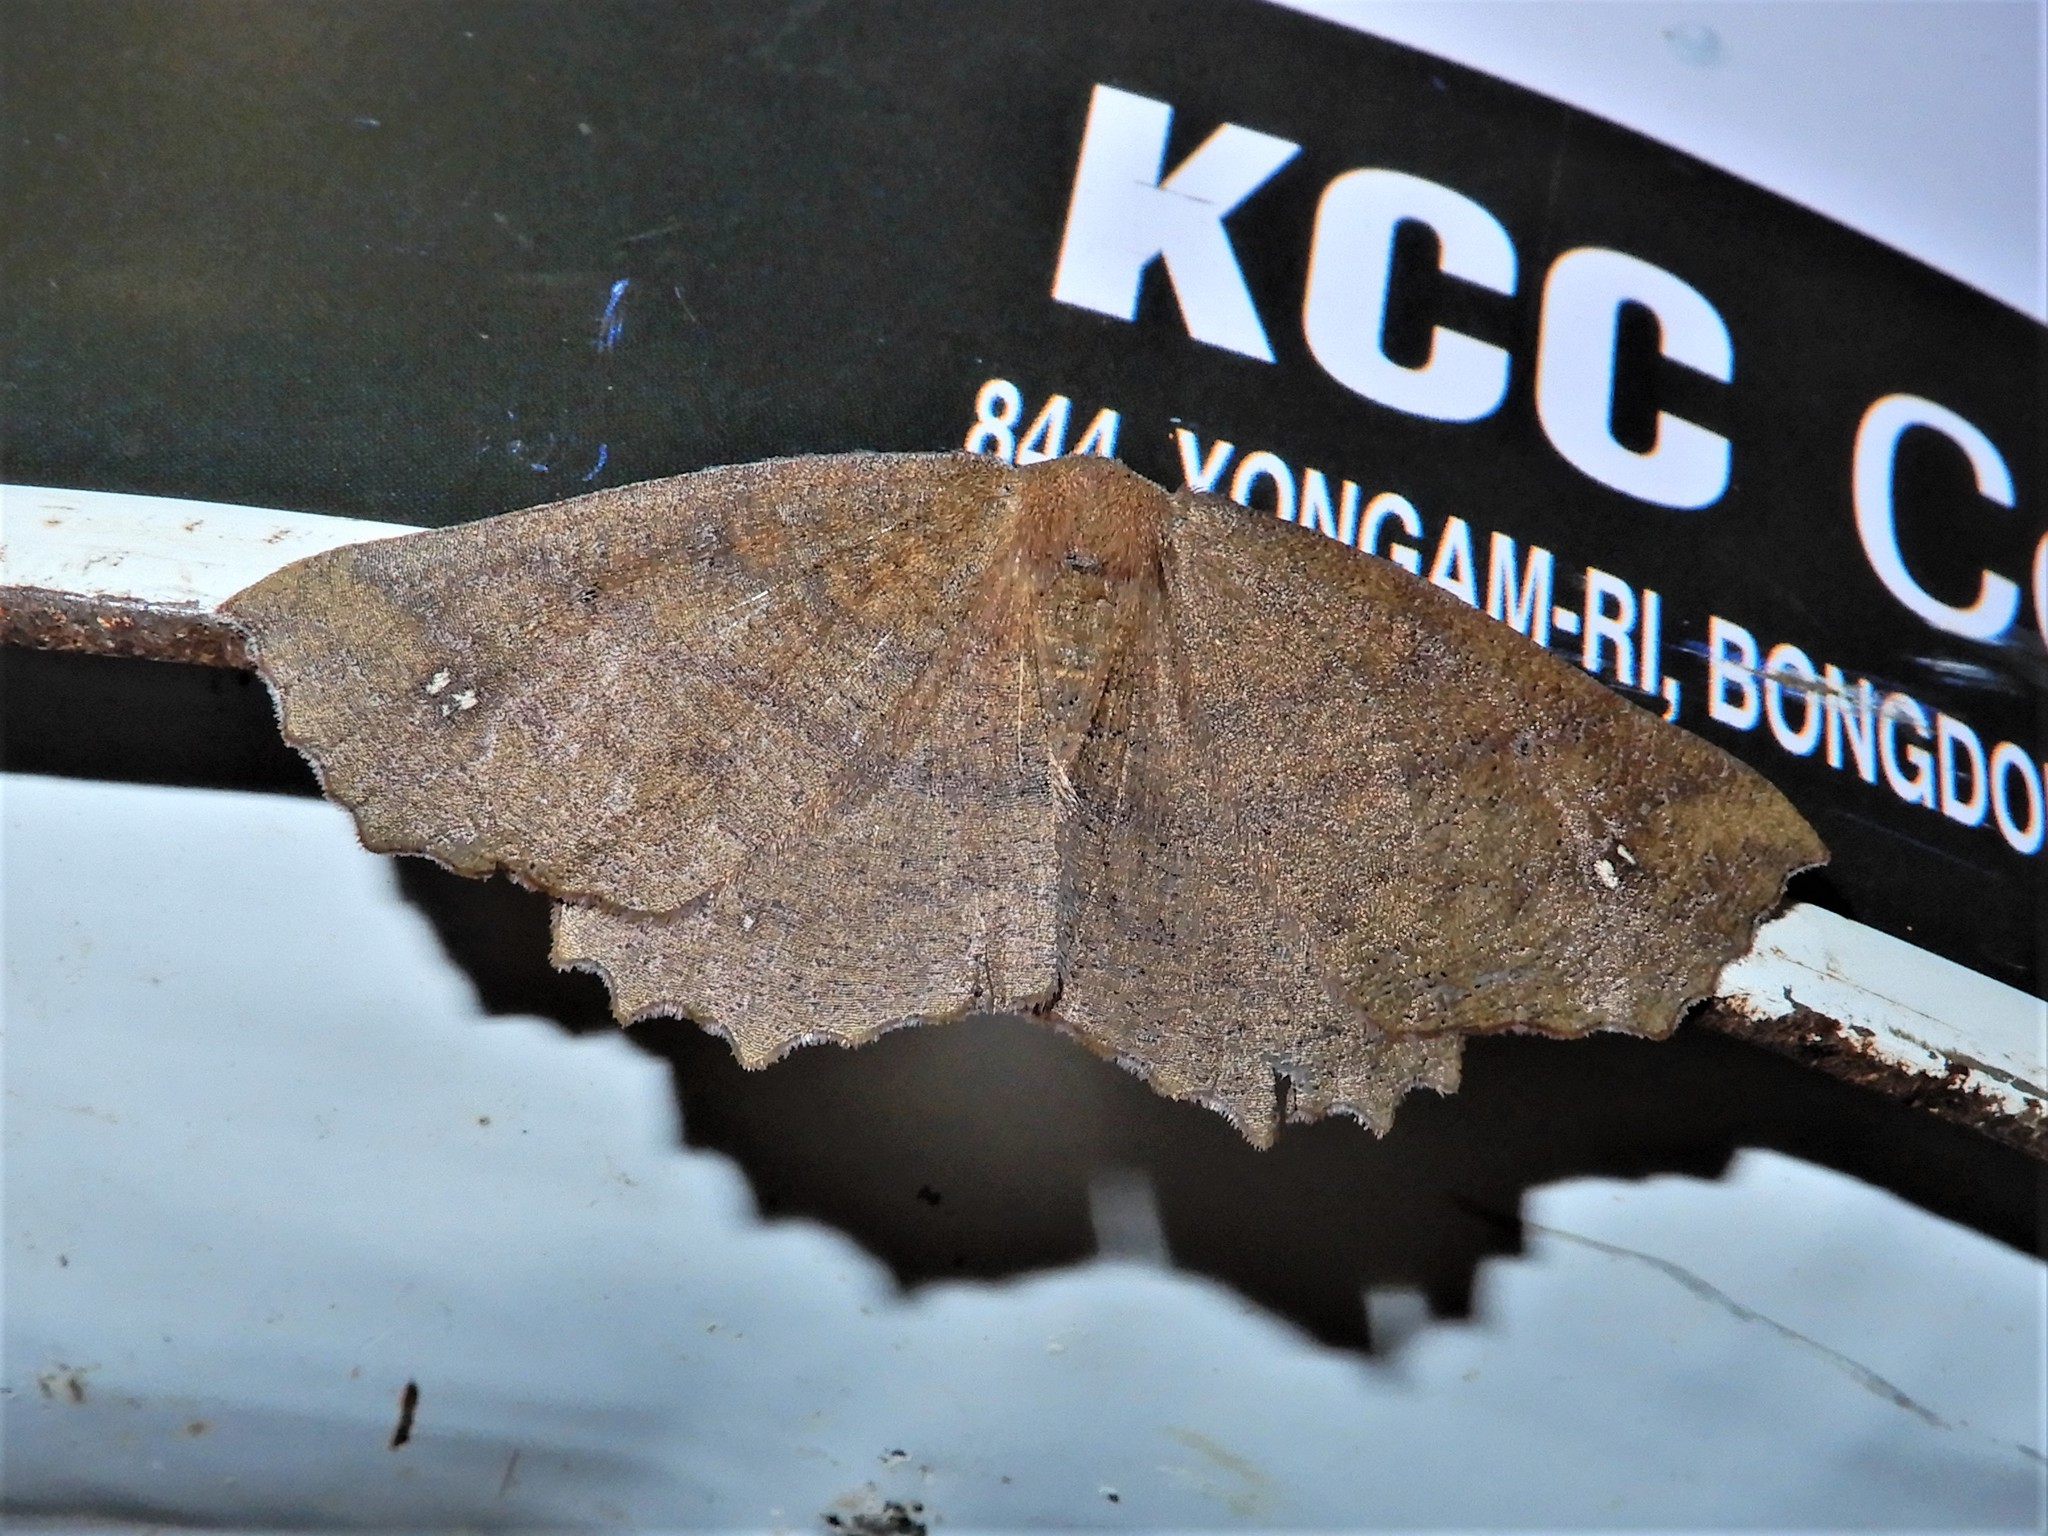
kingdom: Animalia
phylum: Arthropoda
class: Insecta
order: Lepidoptera
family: Geometridae
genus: Xyridacma
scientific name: Xyridacma ustaria
